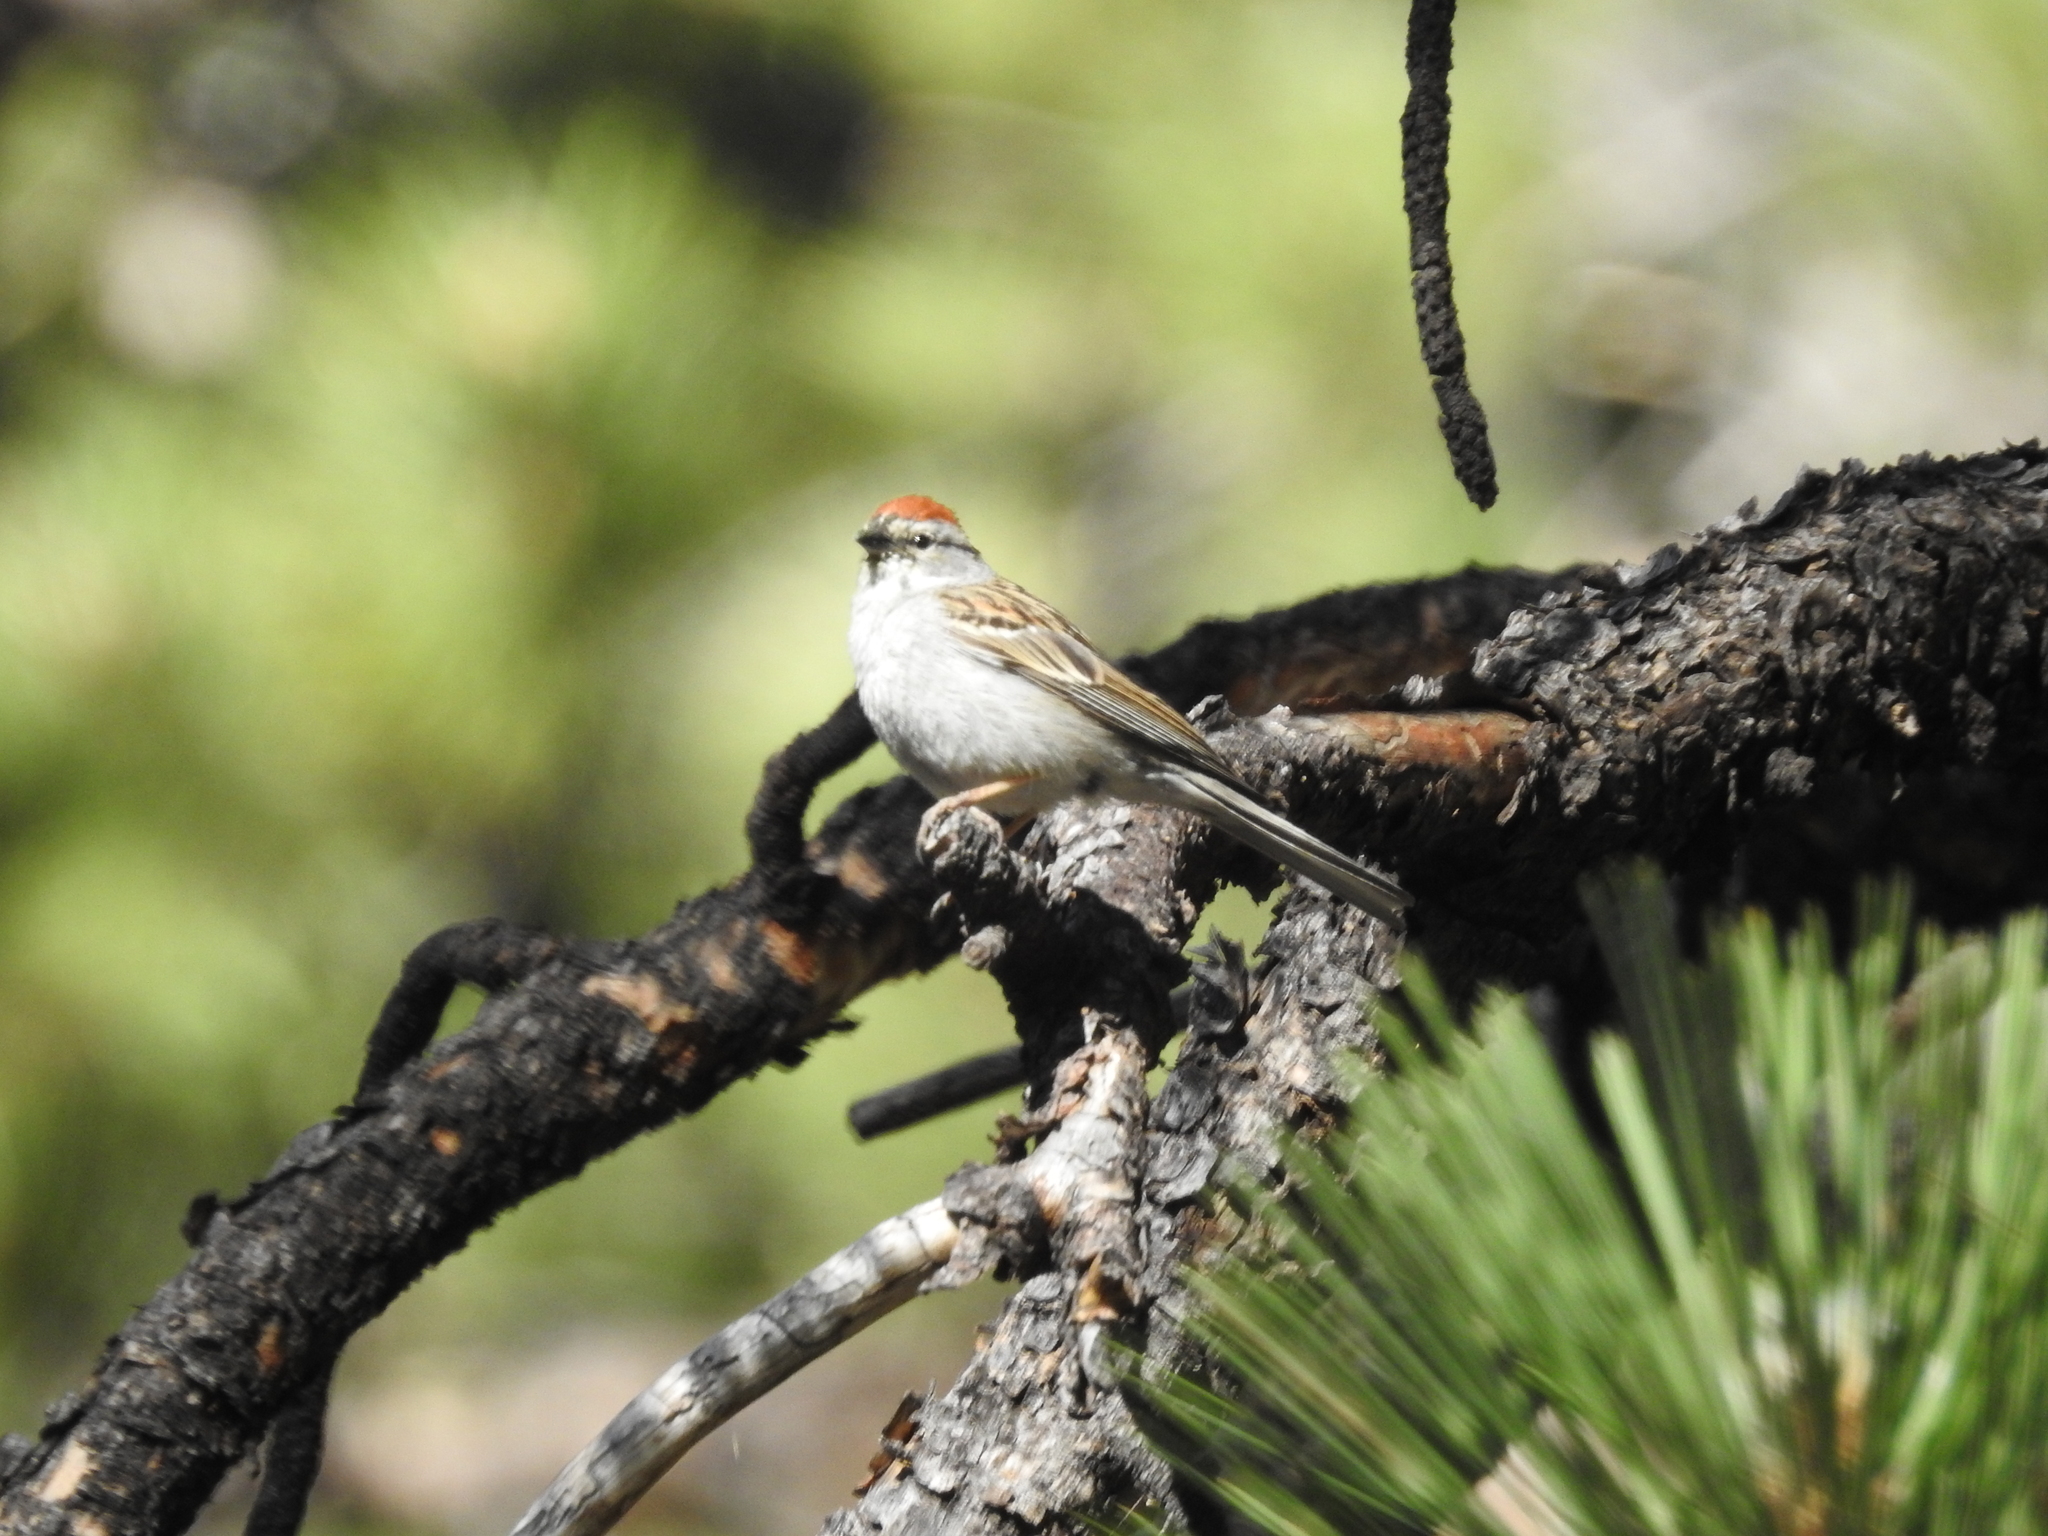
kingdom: Animalia
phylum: Chordata
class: Aves
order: Passeriformes
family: Passerellidae
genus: Spizella
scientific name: Spizella passerina
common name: Chipping sparrow
